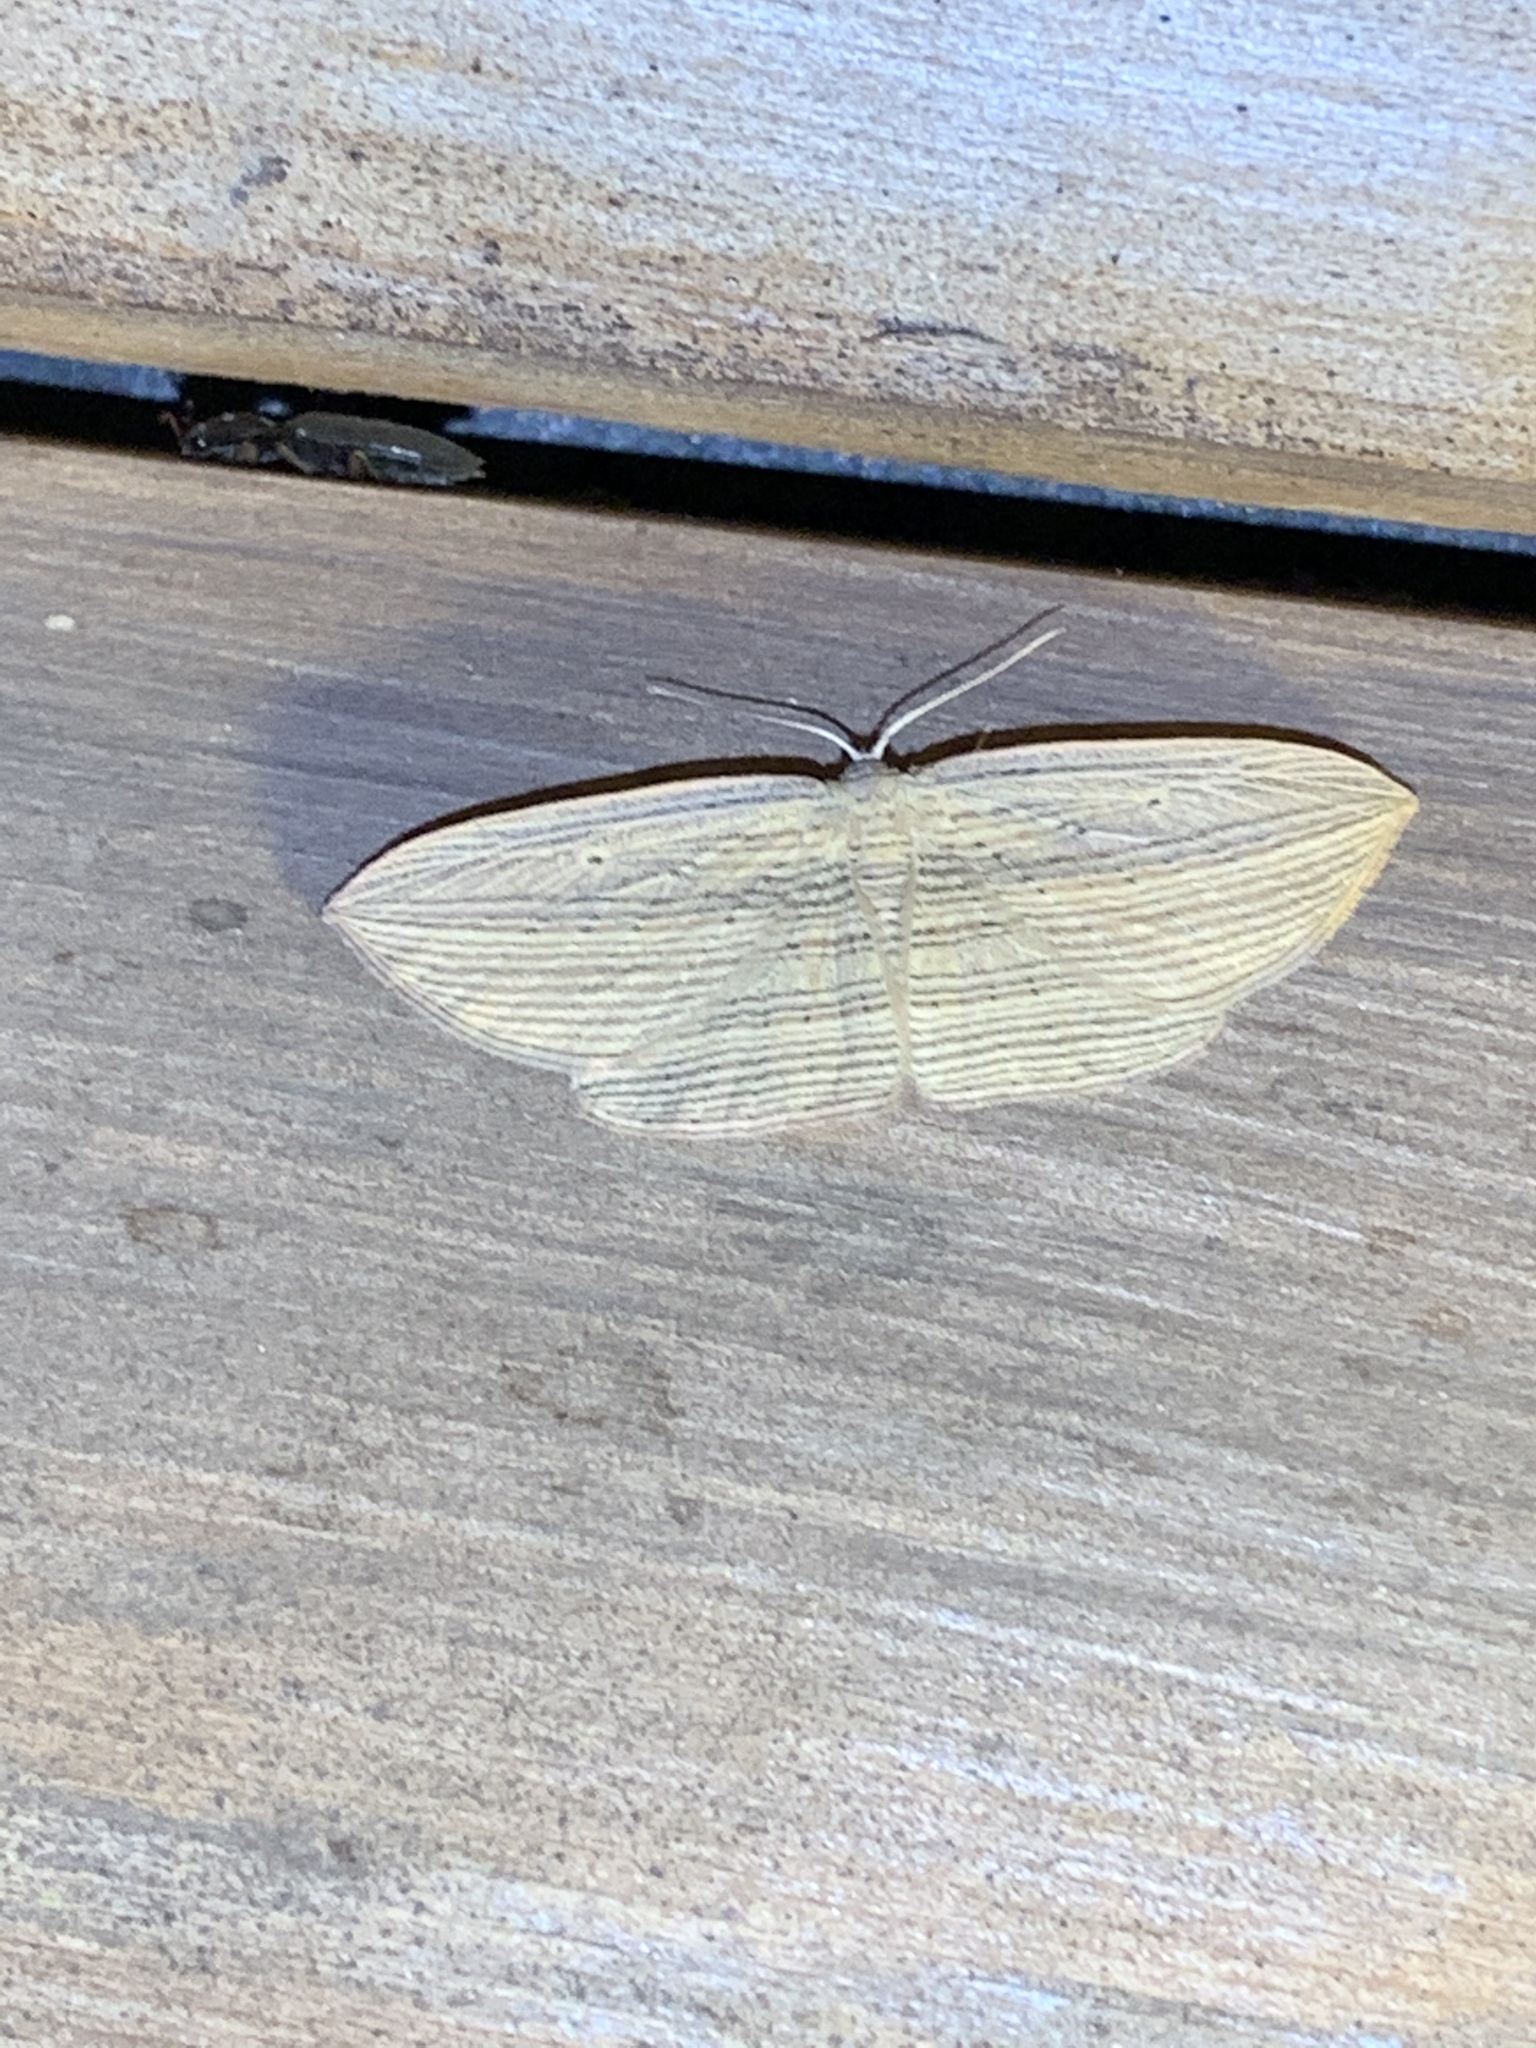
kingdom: Animalia
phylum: Arthropoda
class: Insecta
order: Lepidoptera
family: Geometridae
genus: Epiphryne
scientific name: Epiphryne verriculata
